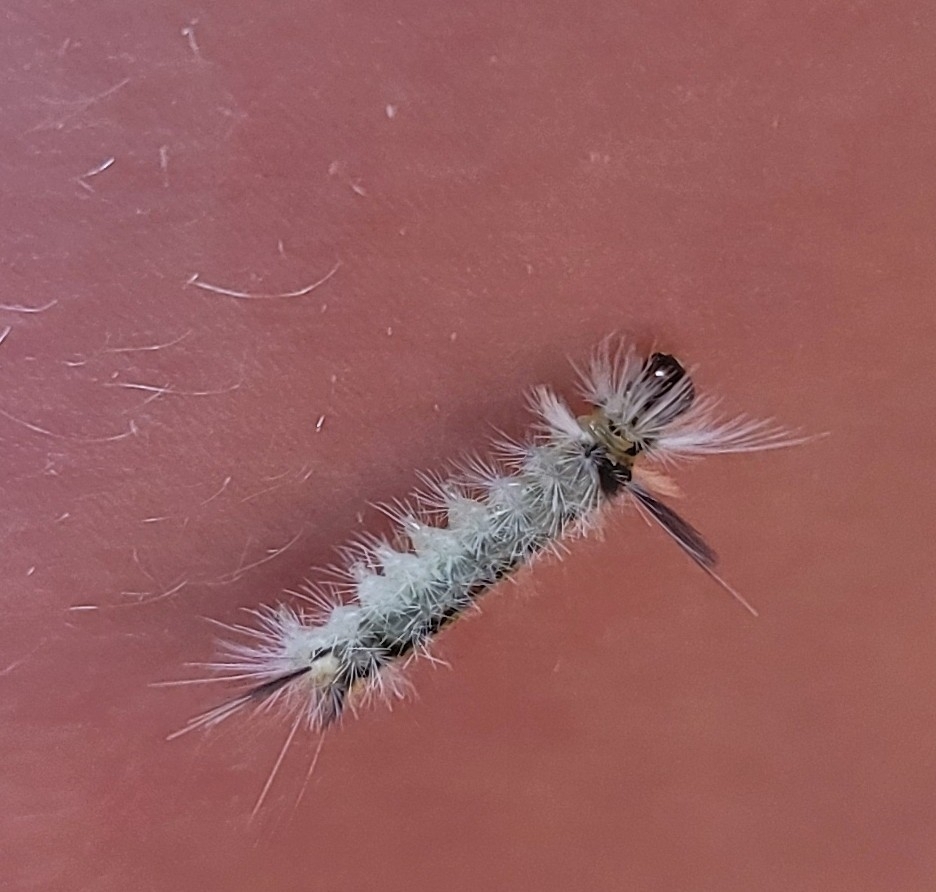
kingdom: Animalia
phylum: Arthropoda
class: Insecta
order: Lepidoptera
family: Erebidae
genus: Halysidota
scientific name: Halysidota tessellaris
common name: Banded tussock moth
